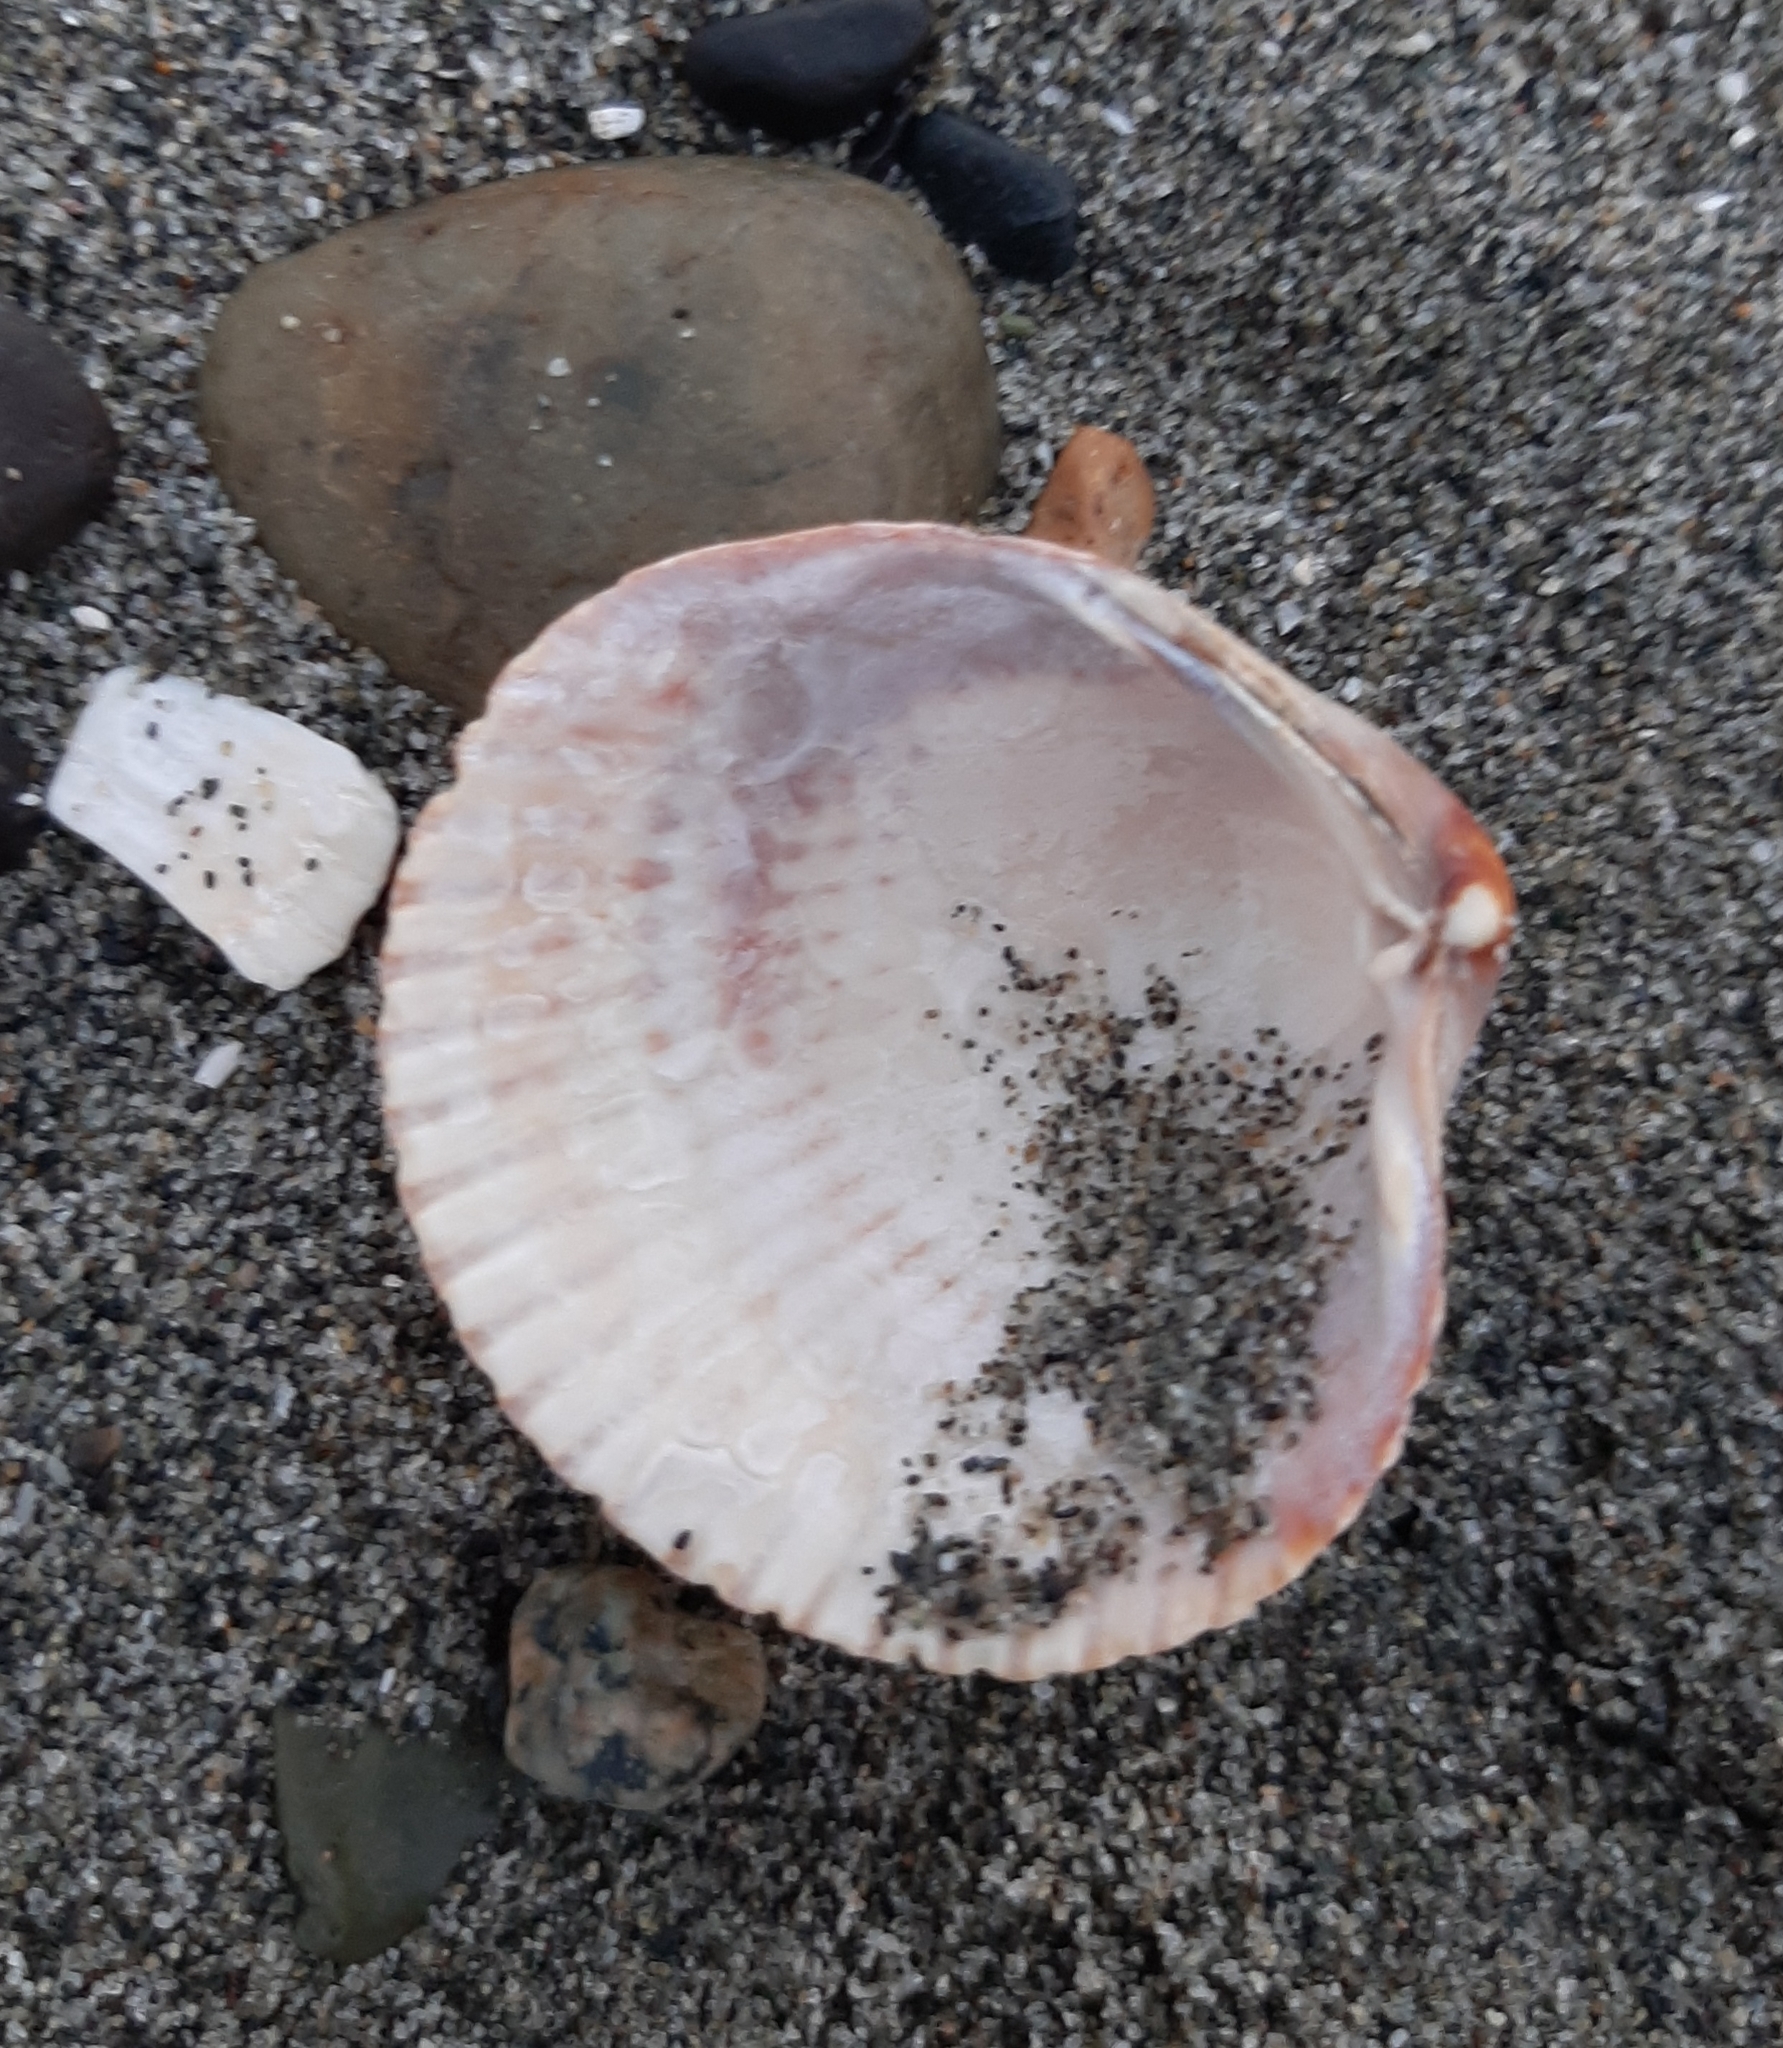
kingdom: Animalia
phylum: Mollusca
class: Bivalvia
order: Cardiida
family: Cardiidae
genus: Clinocardium
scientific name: Clinocardium nuttallii
